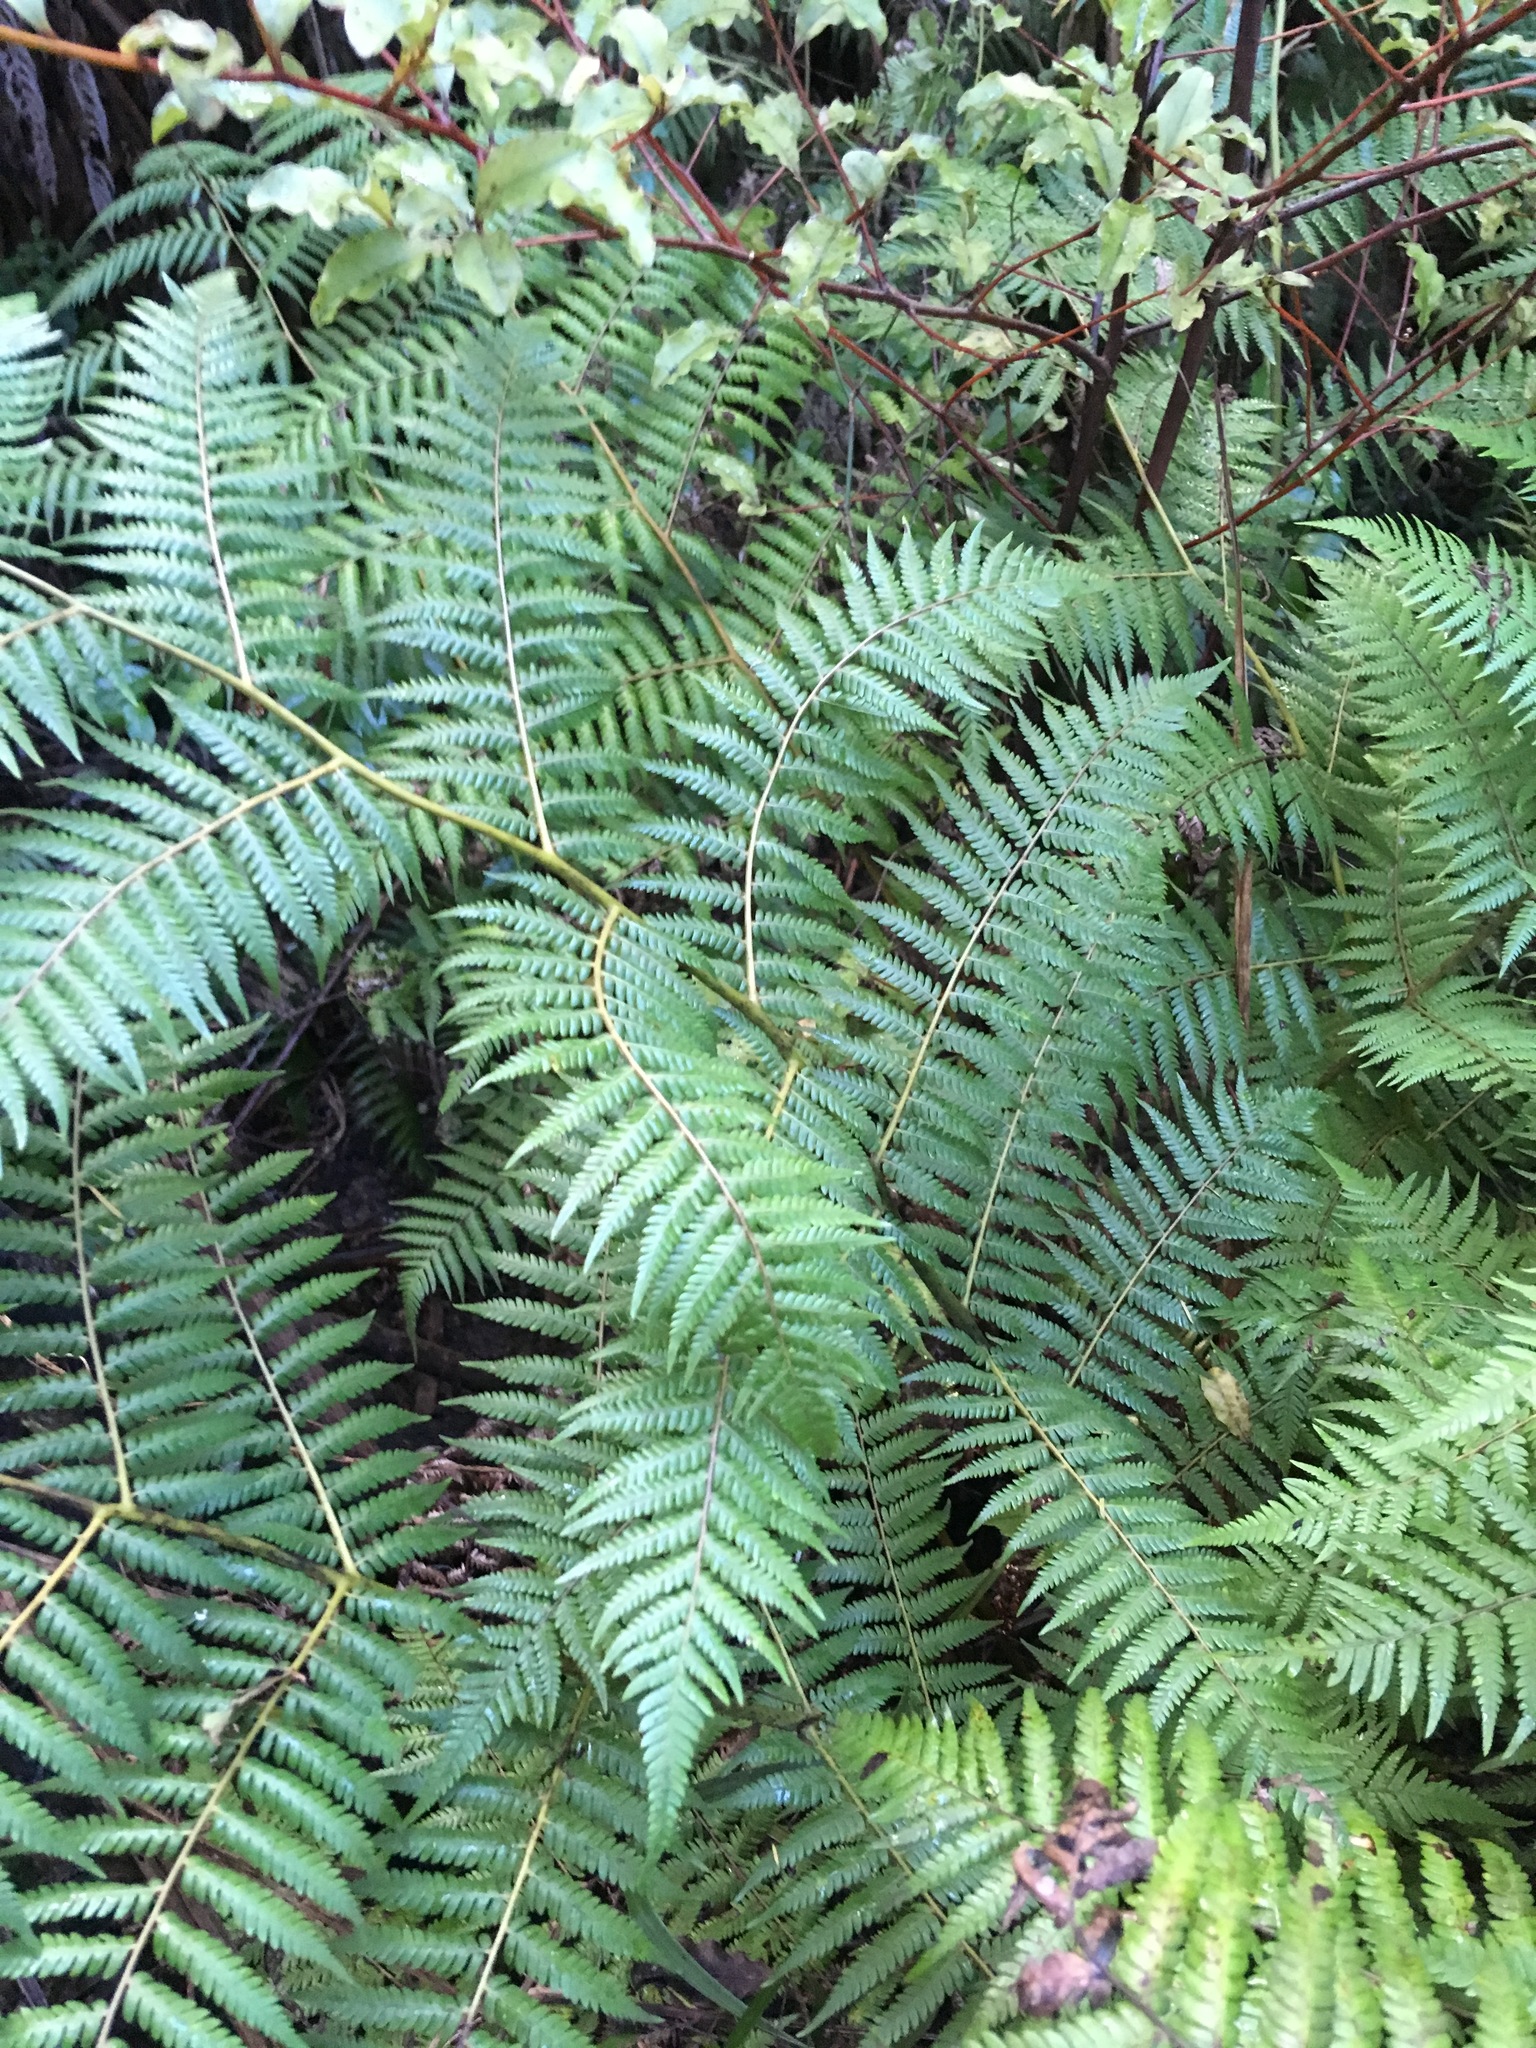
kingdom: Plantae
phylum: Tracheophyta
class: Polypodiopsida
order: Cyatheales
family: Cyatheaceae
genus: Alsophila
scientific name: Alsophila dealbata
